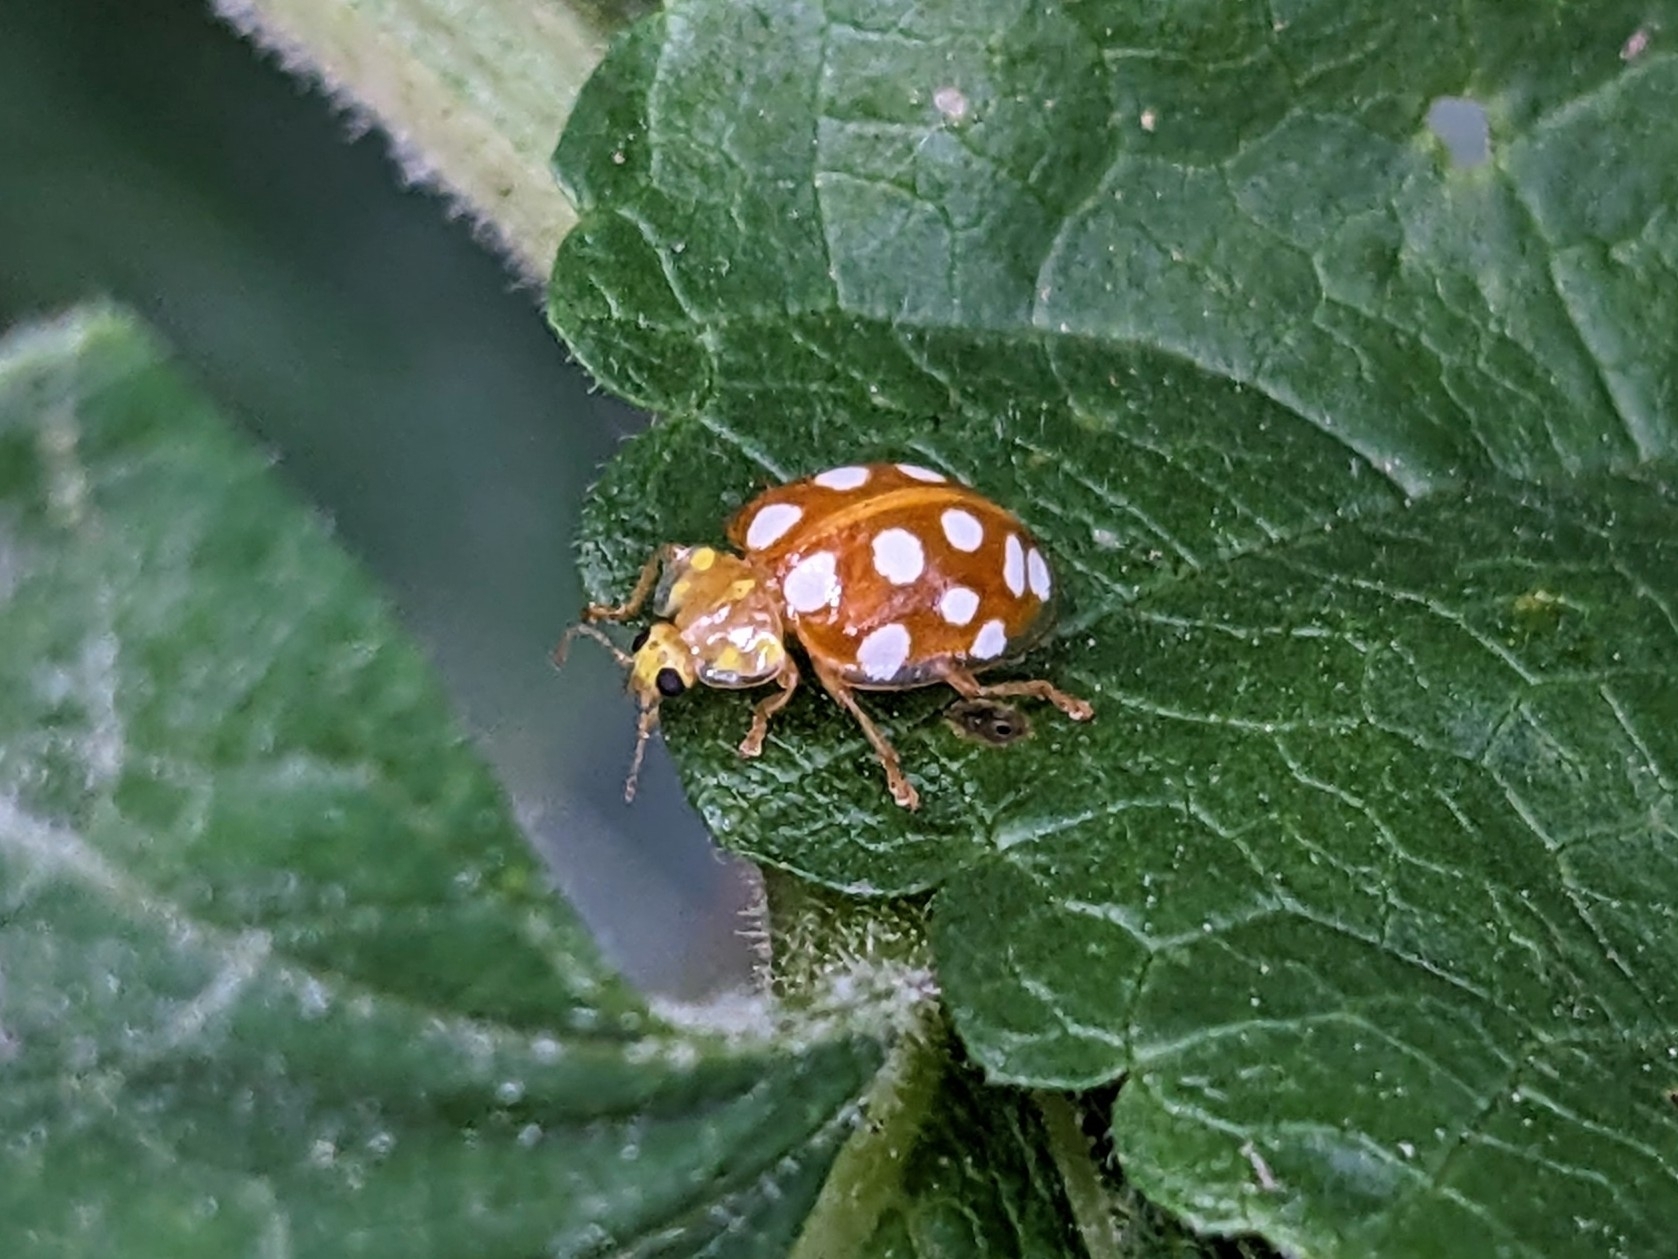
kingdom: Animalia
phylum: Arthropoda
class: Insecta
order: Coleoptera
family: Coccinellidae
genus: Halyzia
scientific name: Halyzia sedecimguttata
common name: Orange ladybird
